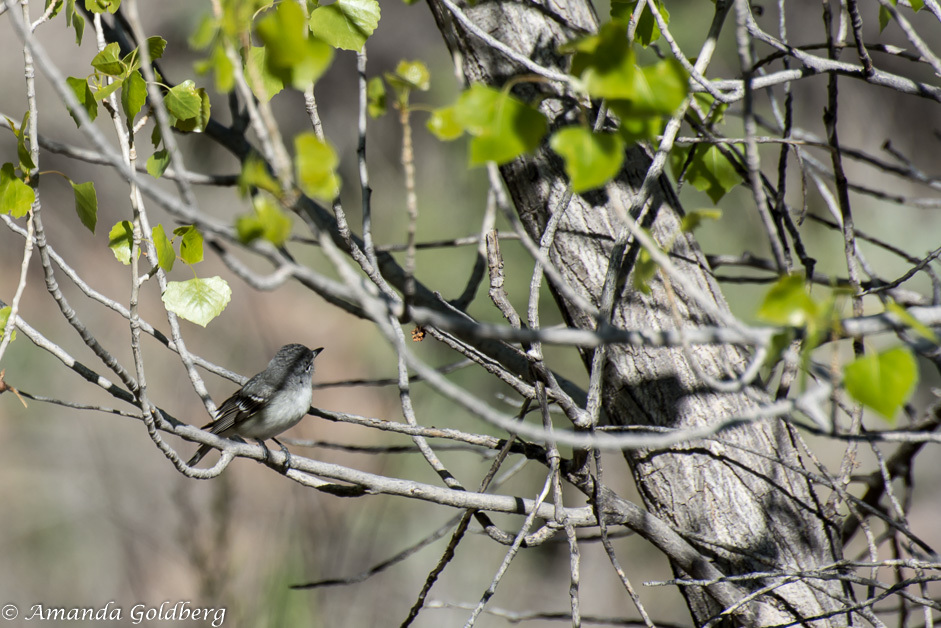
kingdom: Animalia
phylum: Chordata
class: Aves
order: Passeriformes
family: Vireonidae
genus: Vireo
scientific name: Vireo plumbeus
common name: Plumbeous vireo
